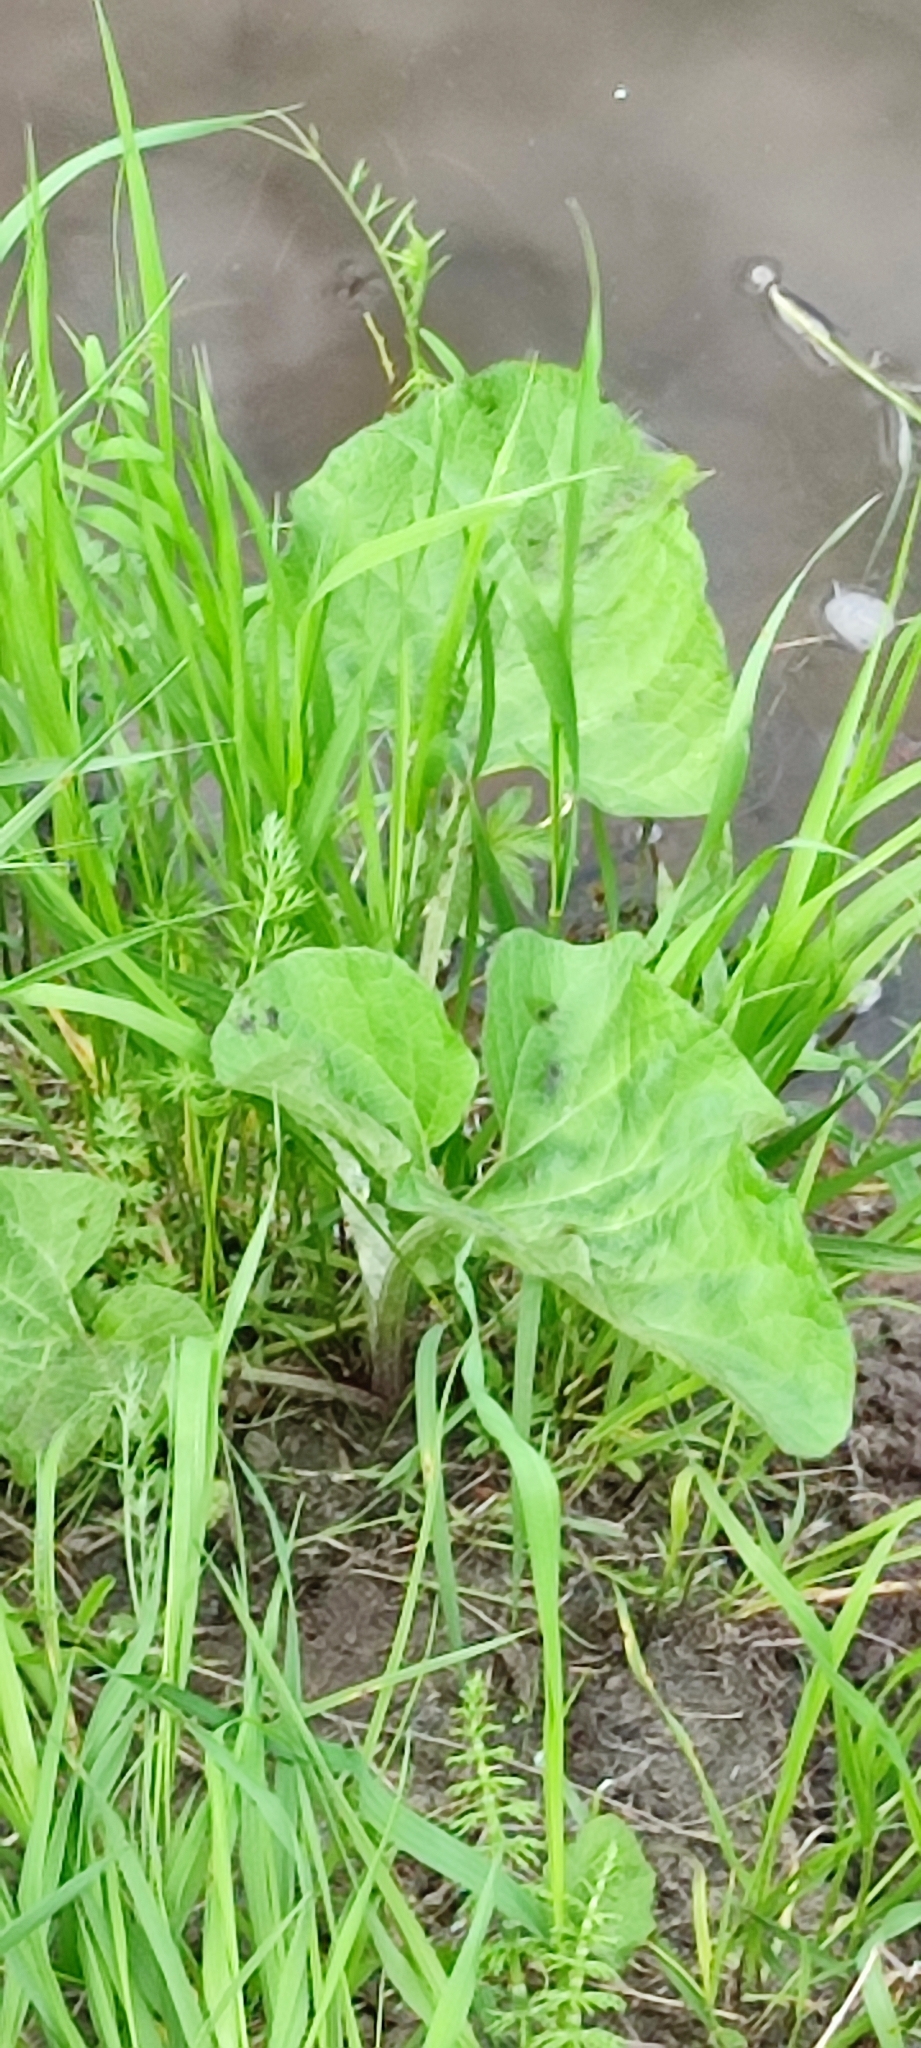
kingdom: Plantae
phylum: Tracheophyta
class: Magnoliopsida
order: Asterales
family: Asteraceae
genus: Arctium
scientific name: Arctium tomentosum
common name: Woolly burdock
